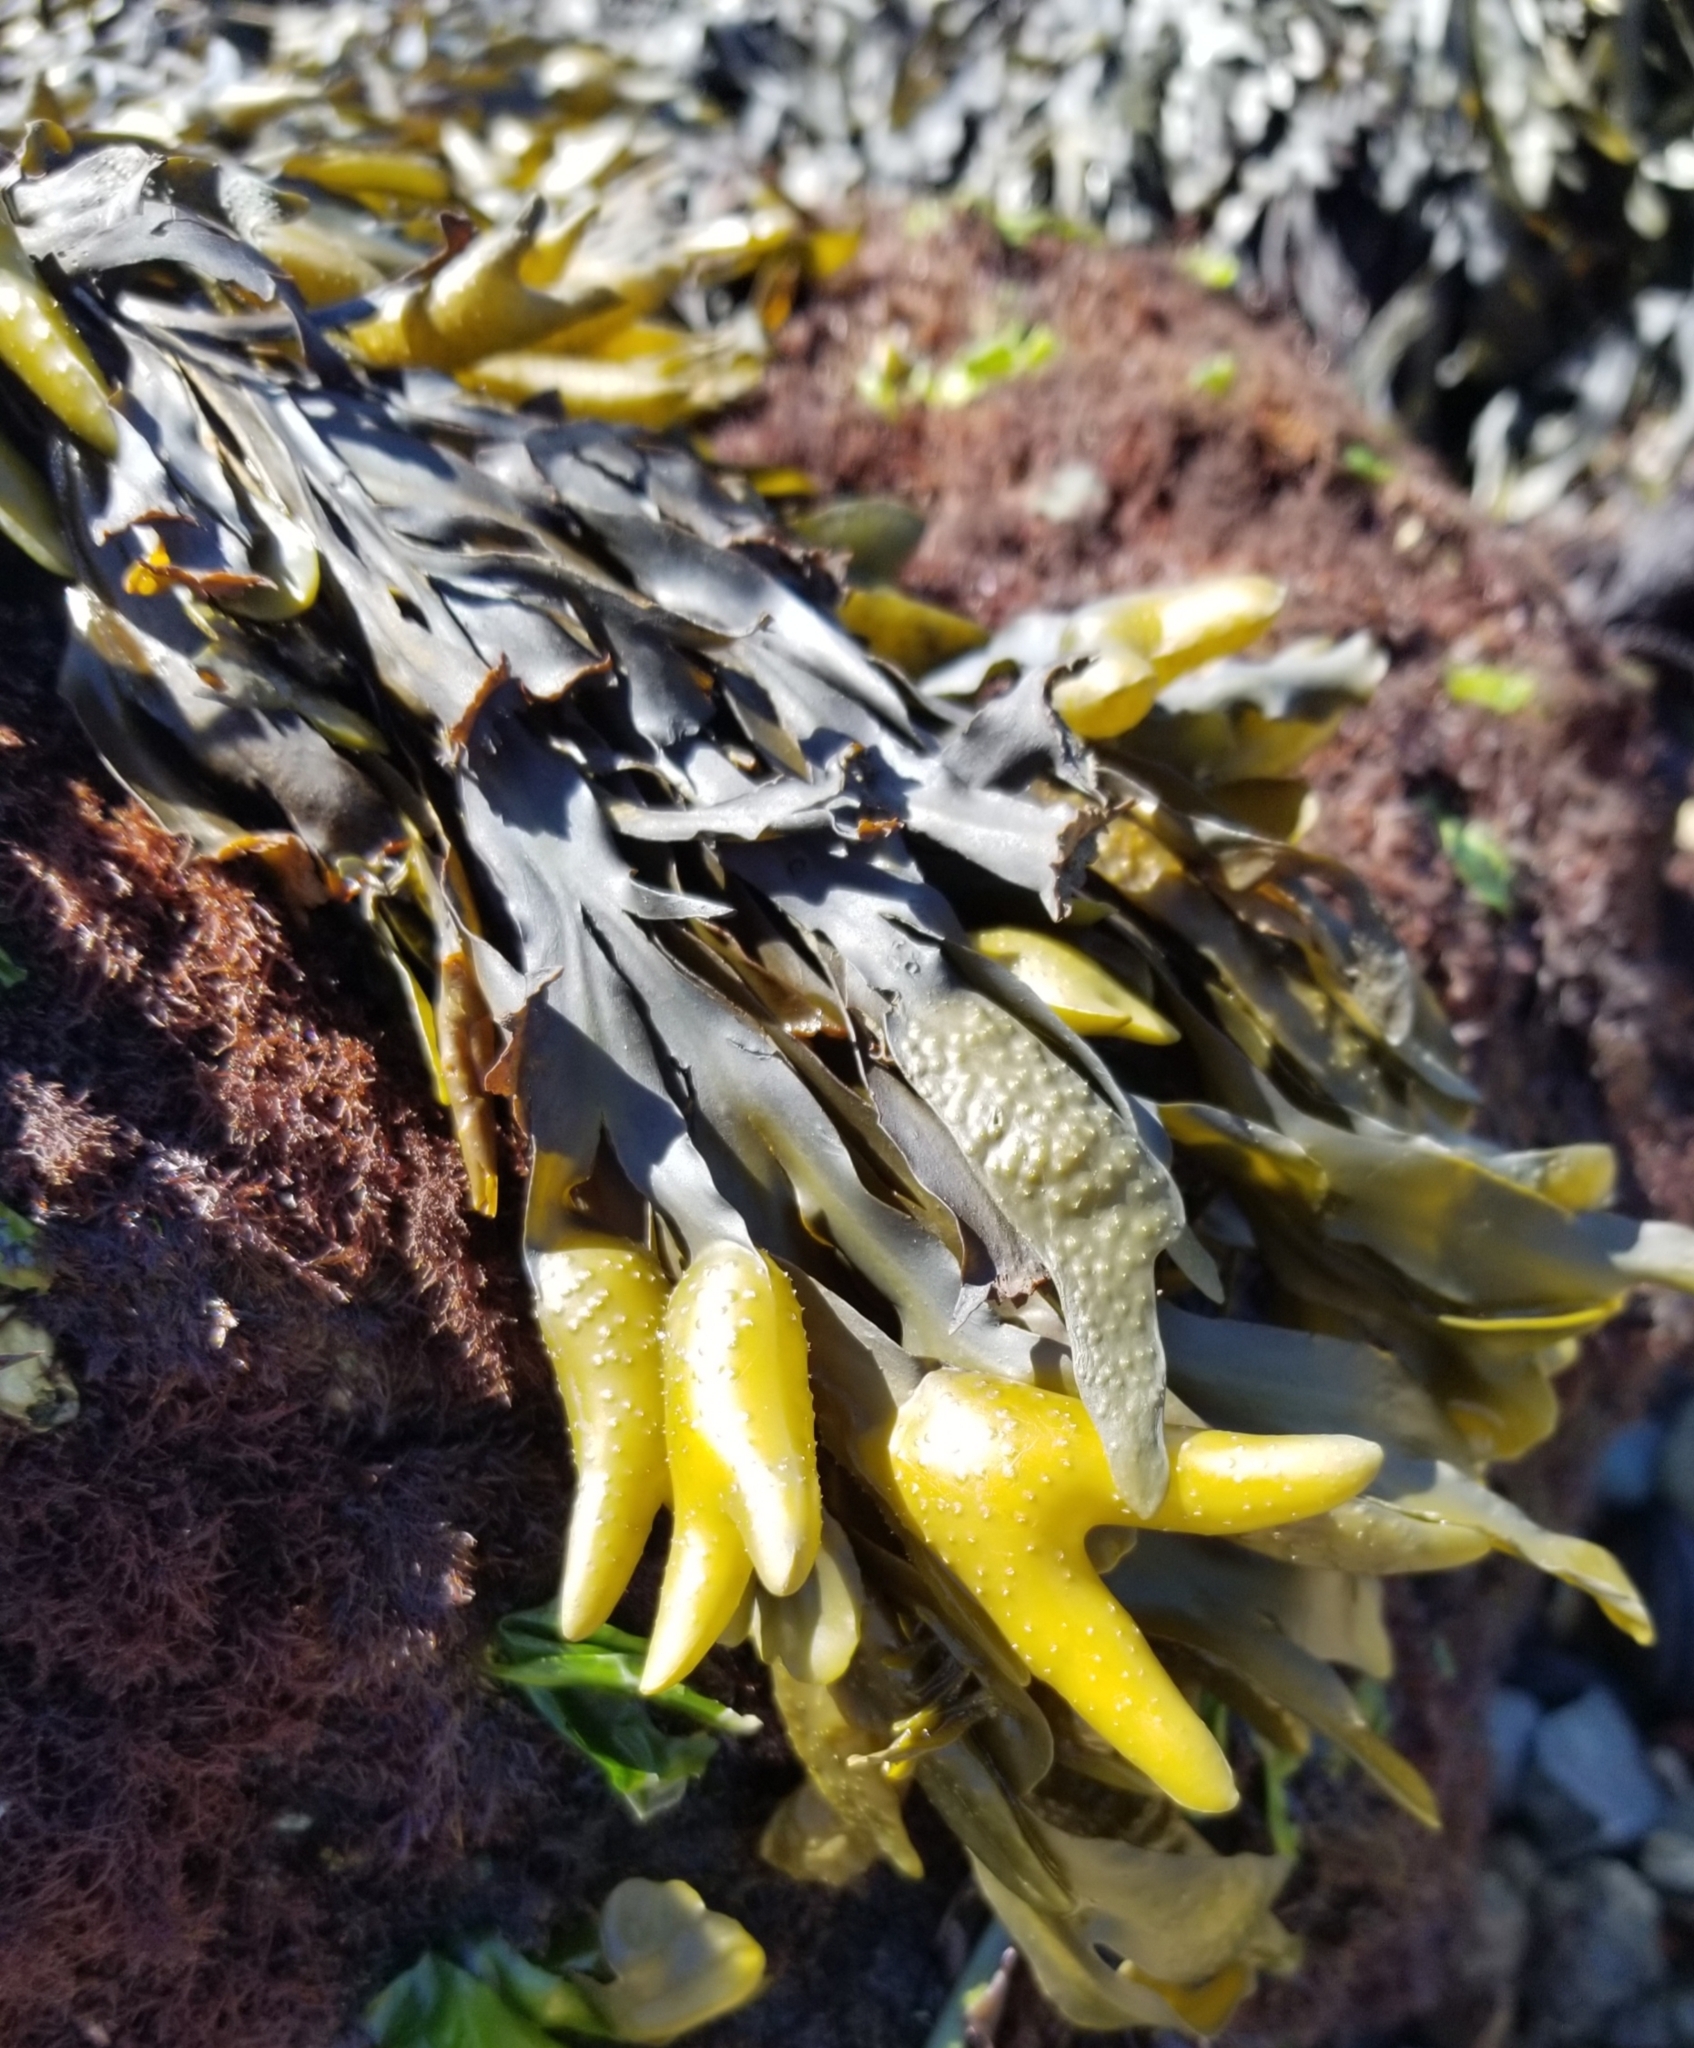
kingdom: Chromista
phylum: Ochrophyta
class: Phaeophyceae
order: Fucales
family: Fucaceae
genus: Fucus
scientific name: Fucus distichus
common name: Rockweed
